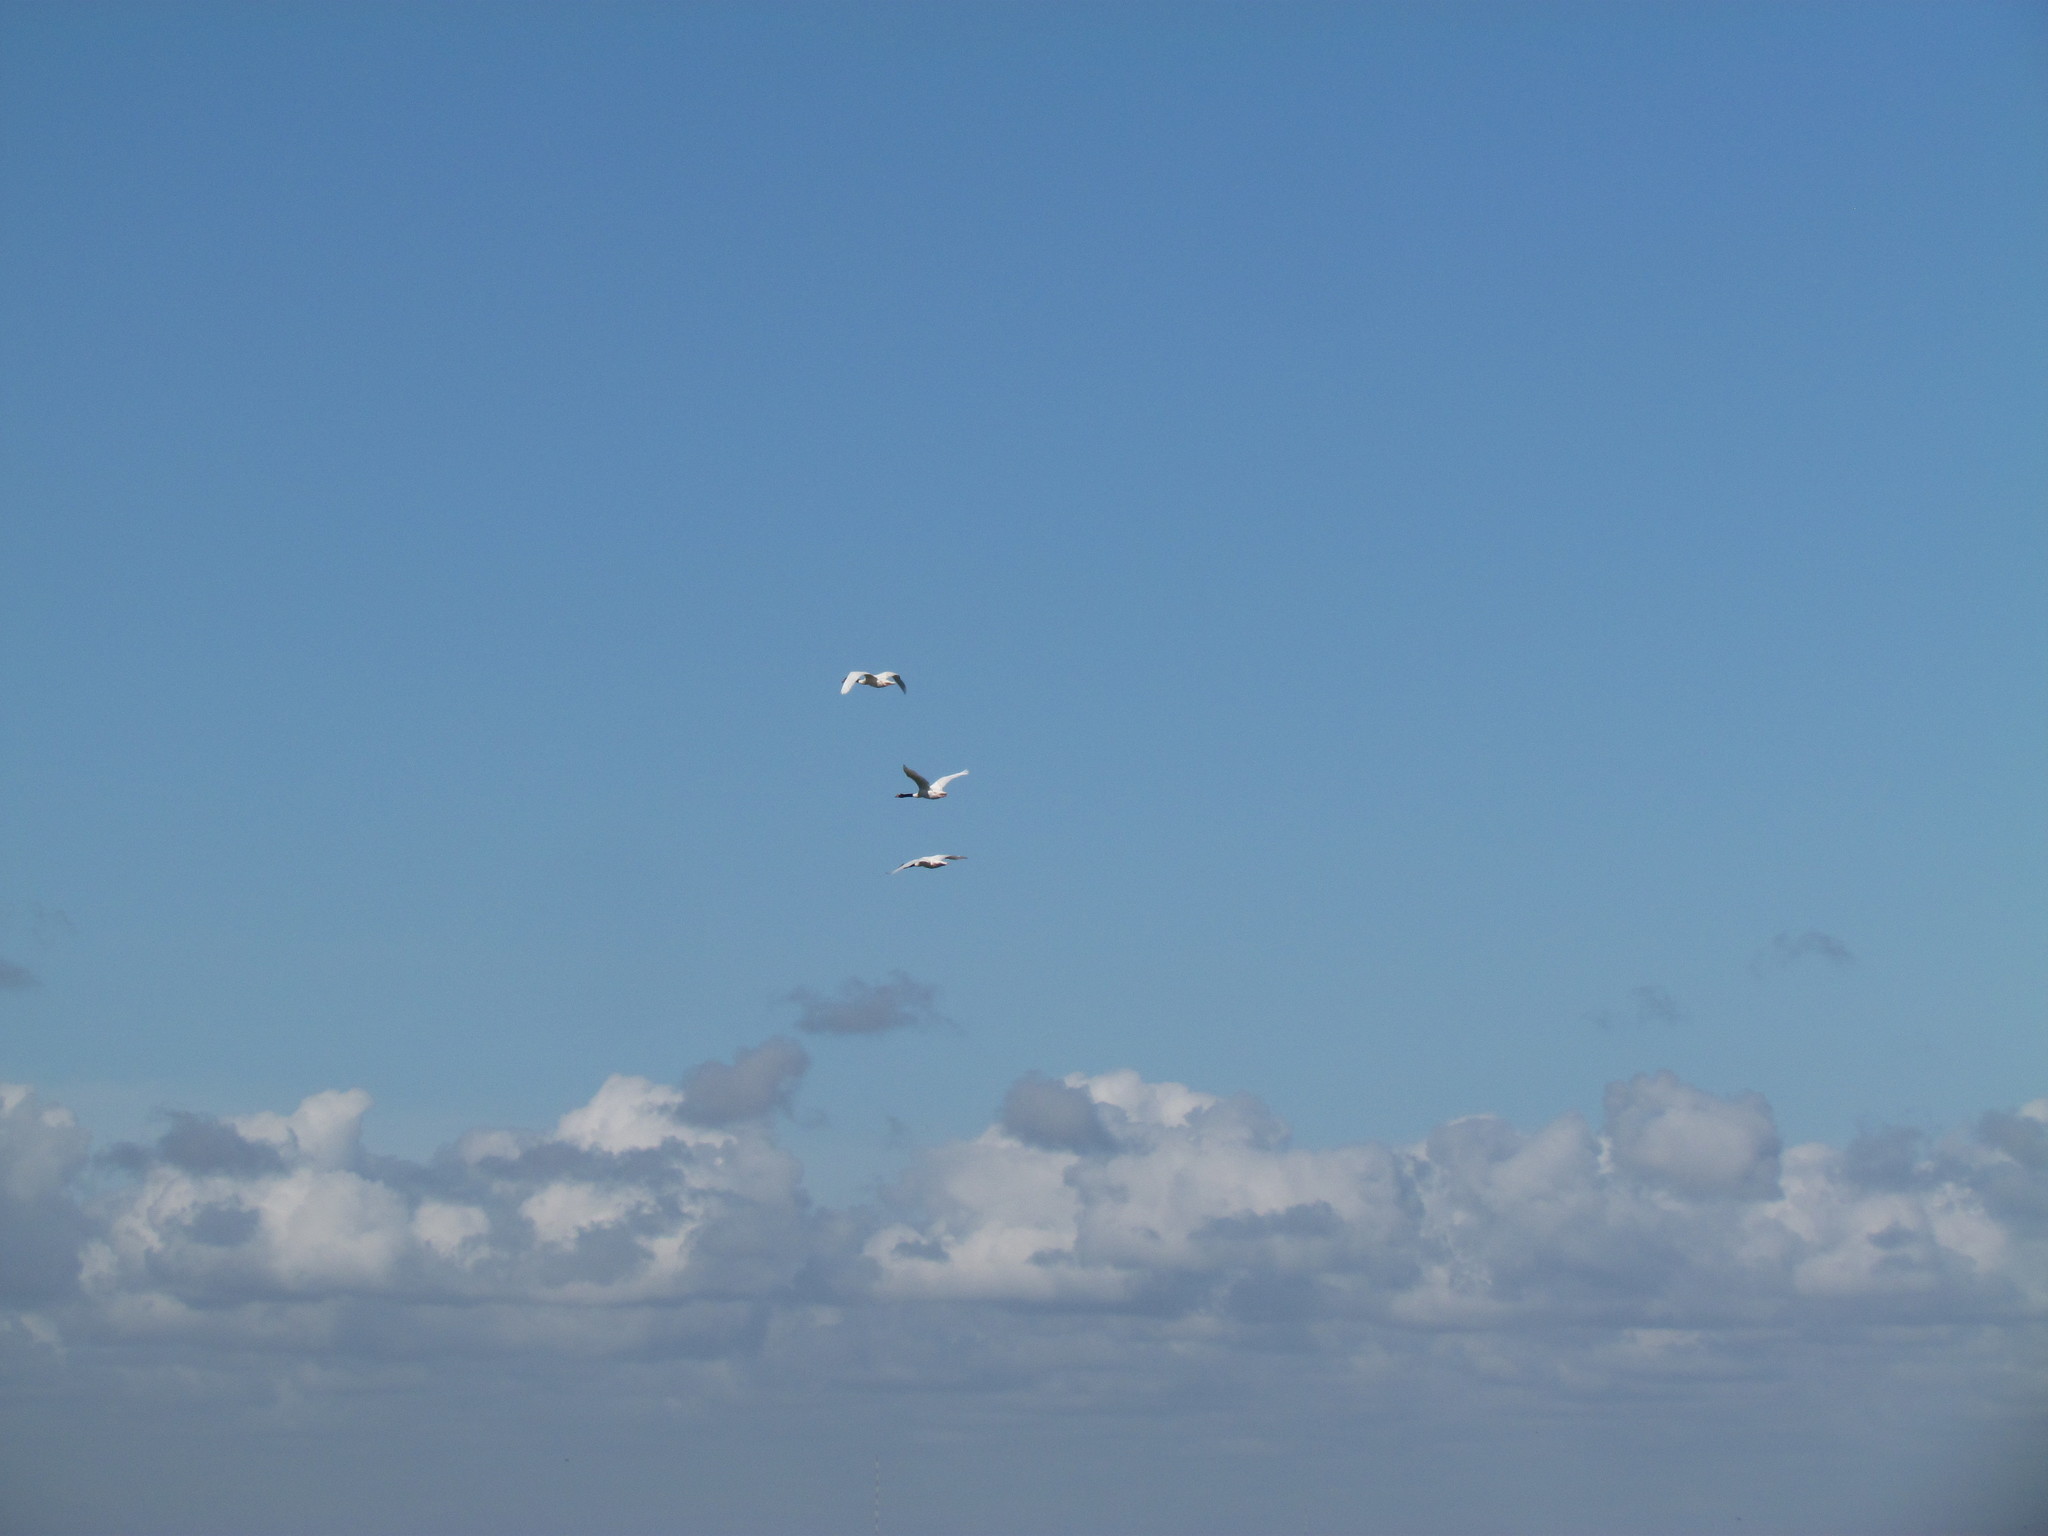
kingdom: Animalia
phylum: Chordata
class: Aves
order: Anseriformes
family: Anatidae
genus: Cygnus
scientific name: Cygnus melancoryphus
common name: Black-necked swan
